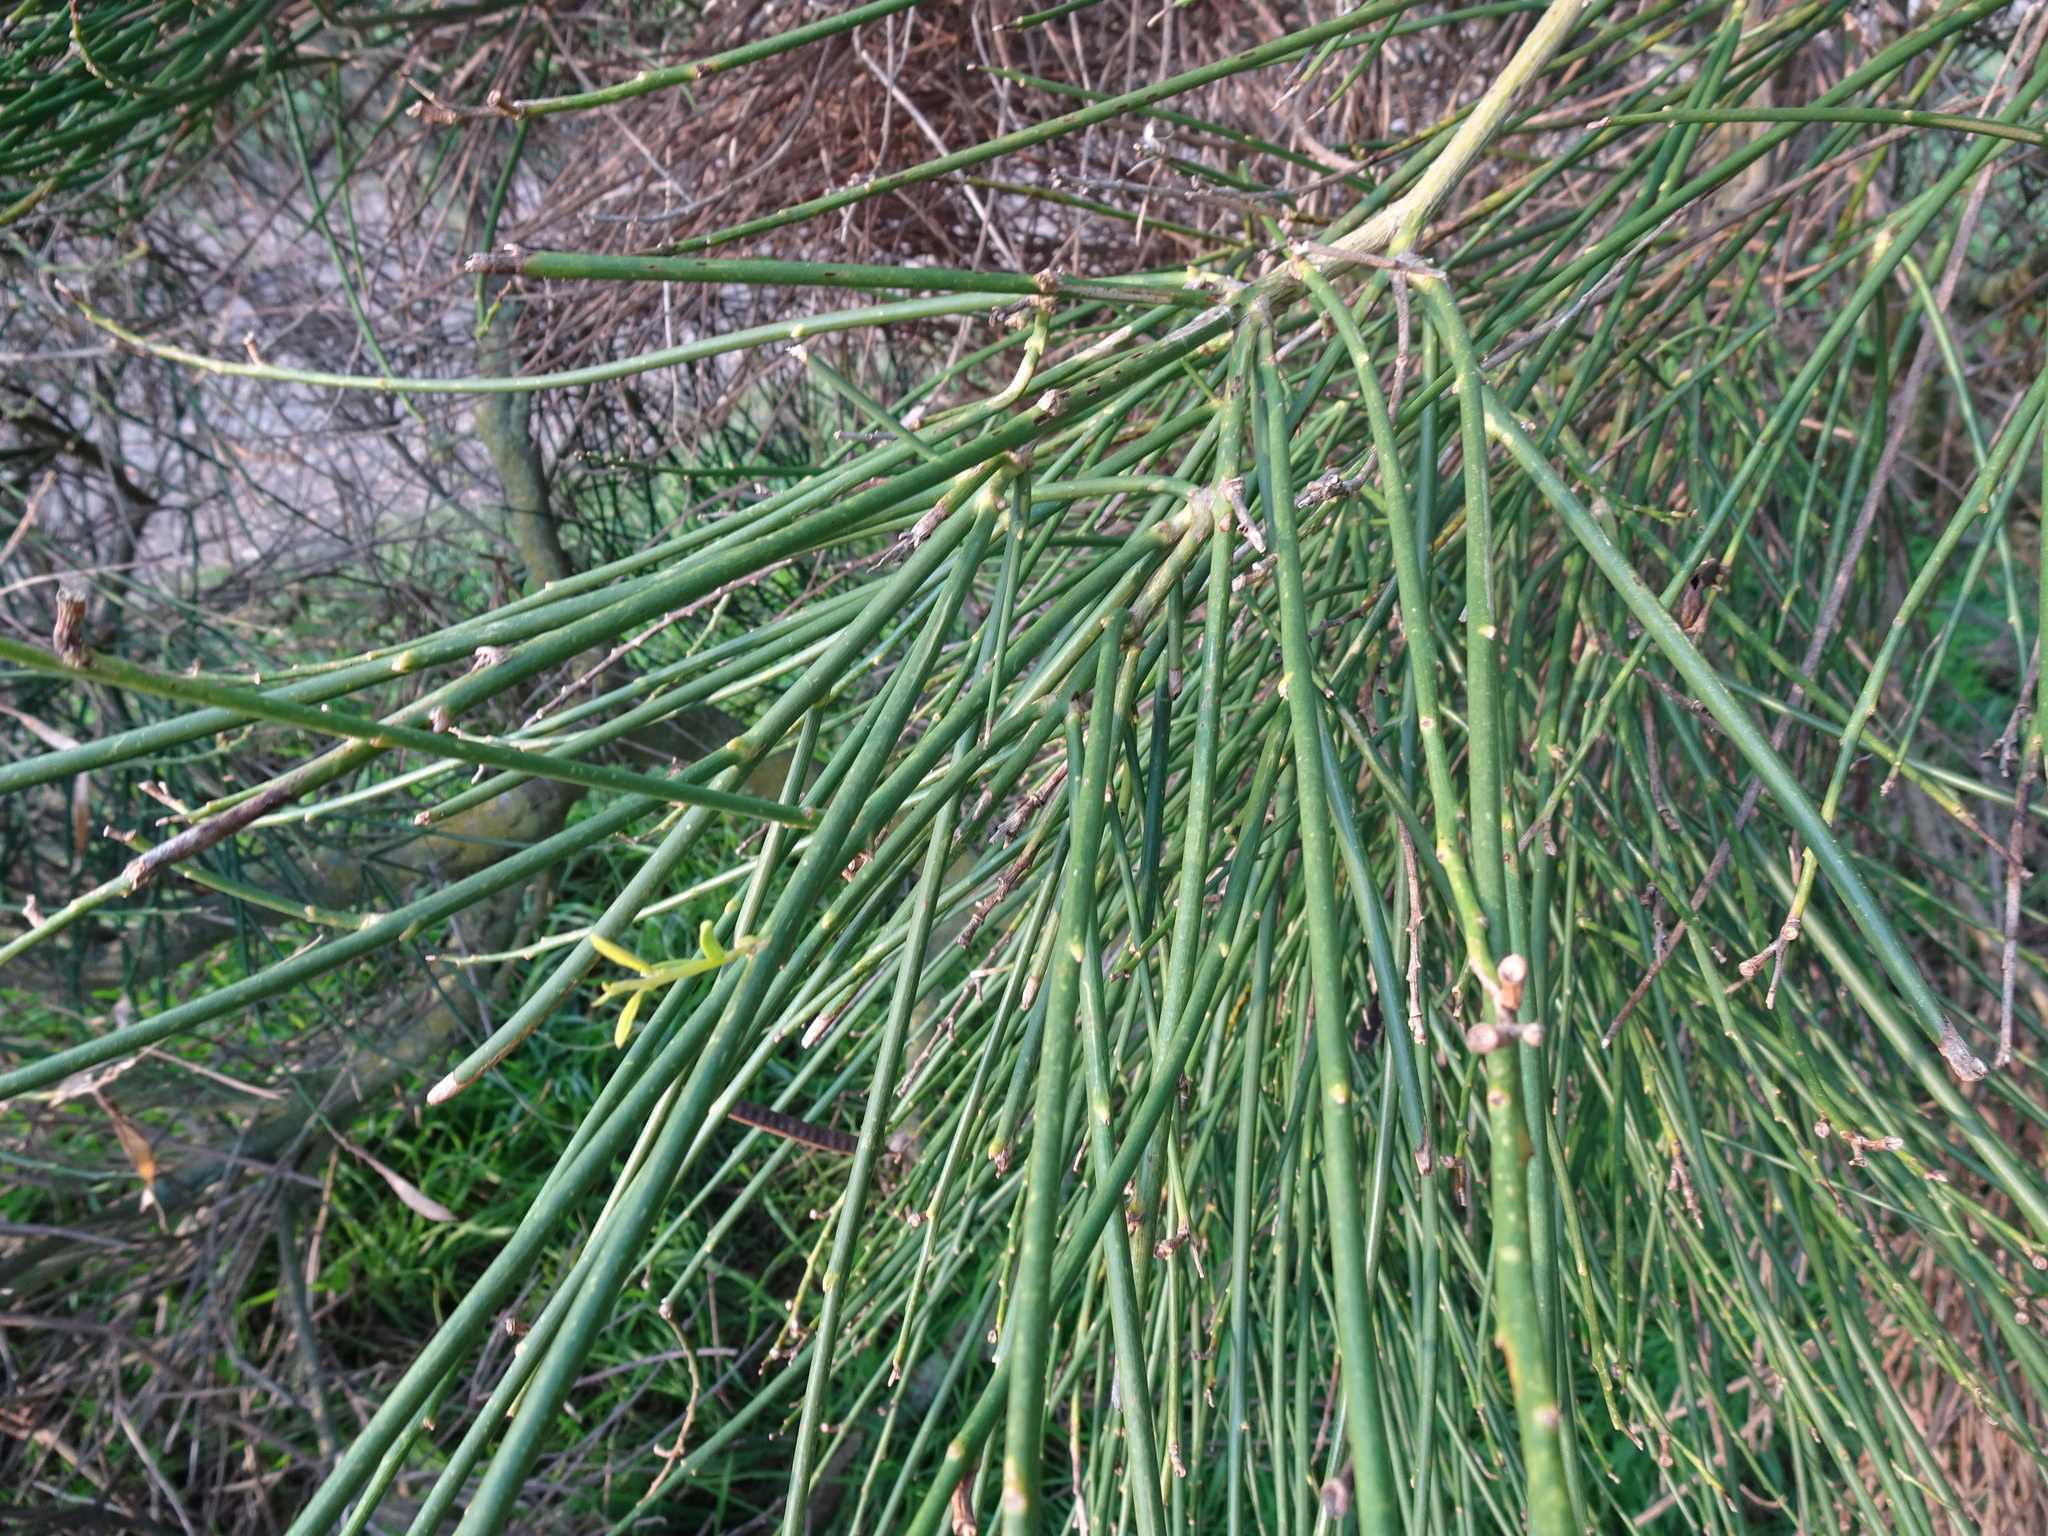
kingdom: Plantae
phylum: Tracheophyta
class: Magnoliopsida
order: Fabales
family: Fabaceae
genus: Spartium
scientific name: Spartium junceum
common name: Spanish broom
